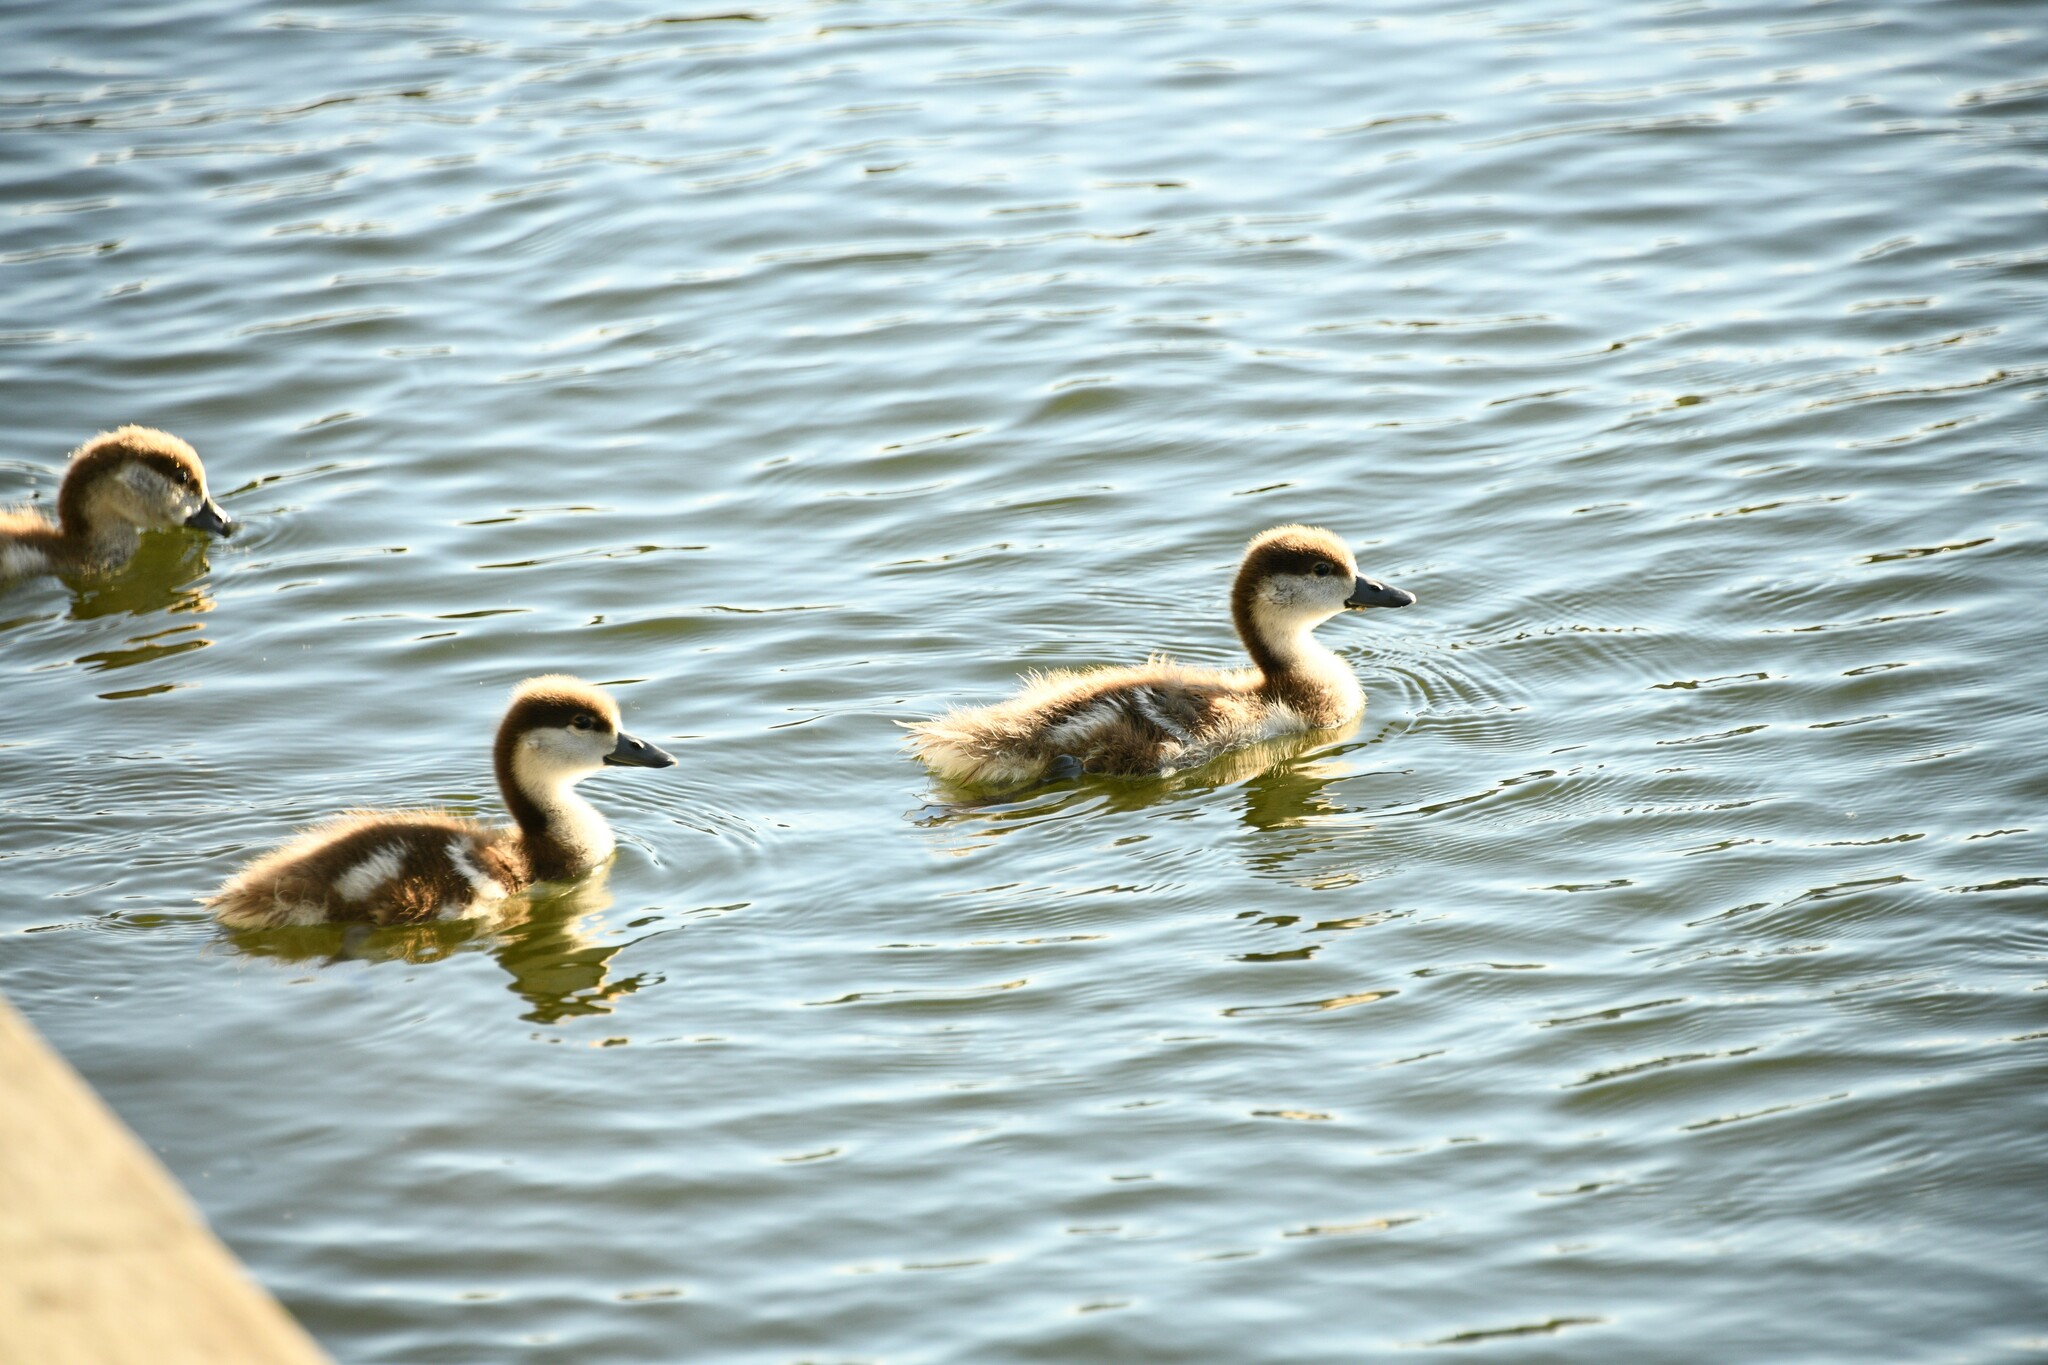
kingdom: Animalia
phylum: Chordata
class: Aves
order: Anseriformes
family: Anatidae
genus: Tadorna
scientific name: Tadorna ferruginea
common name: Ruddy shelduck
